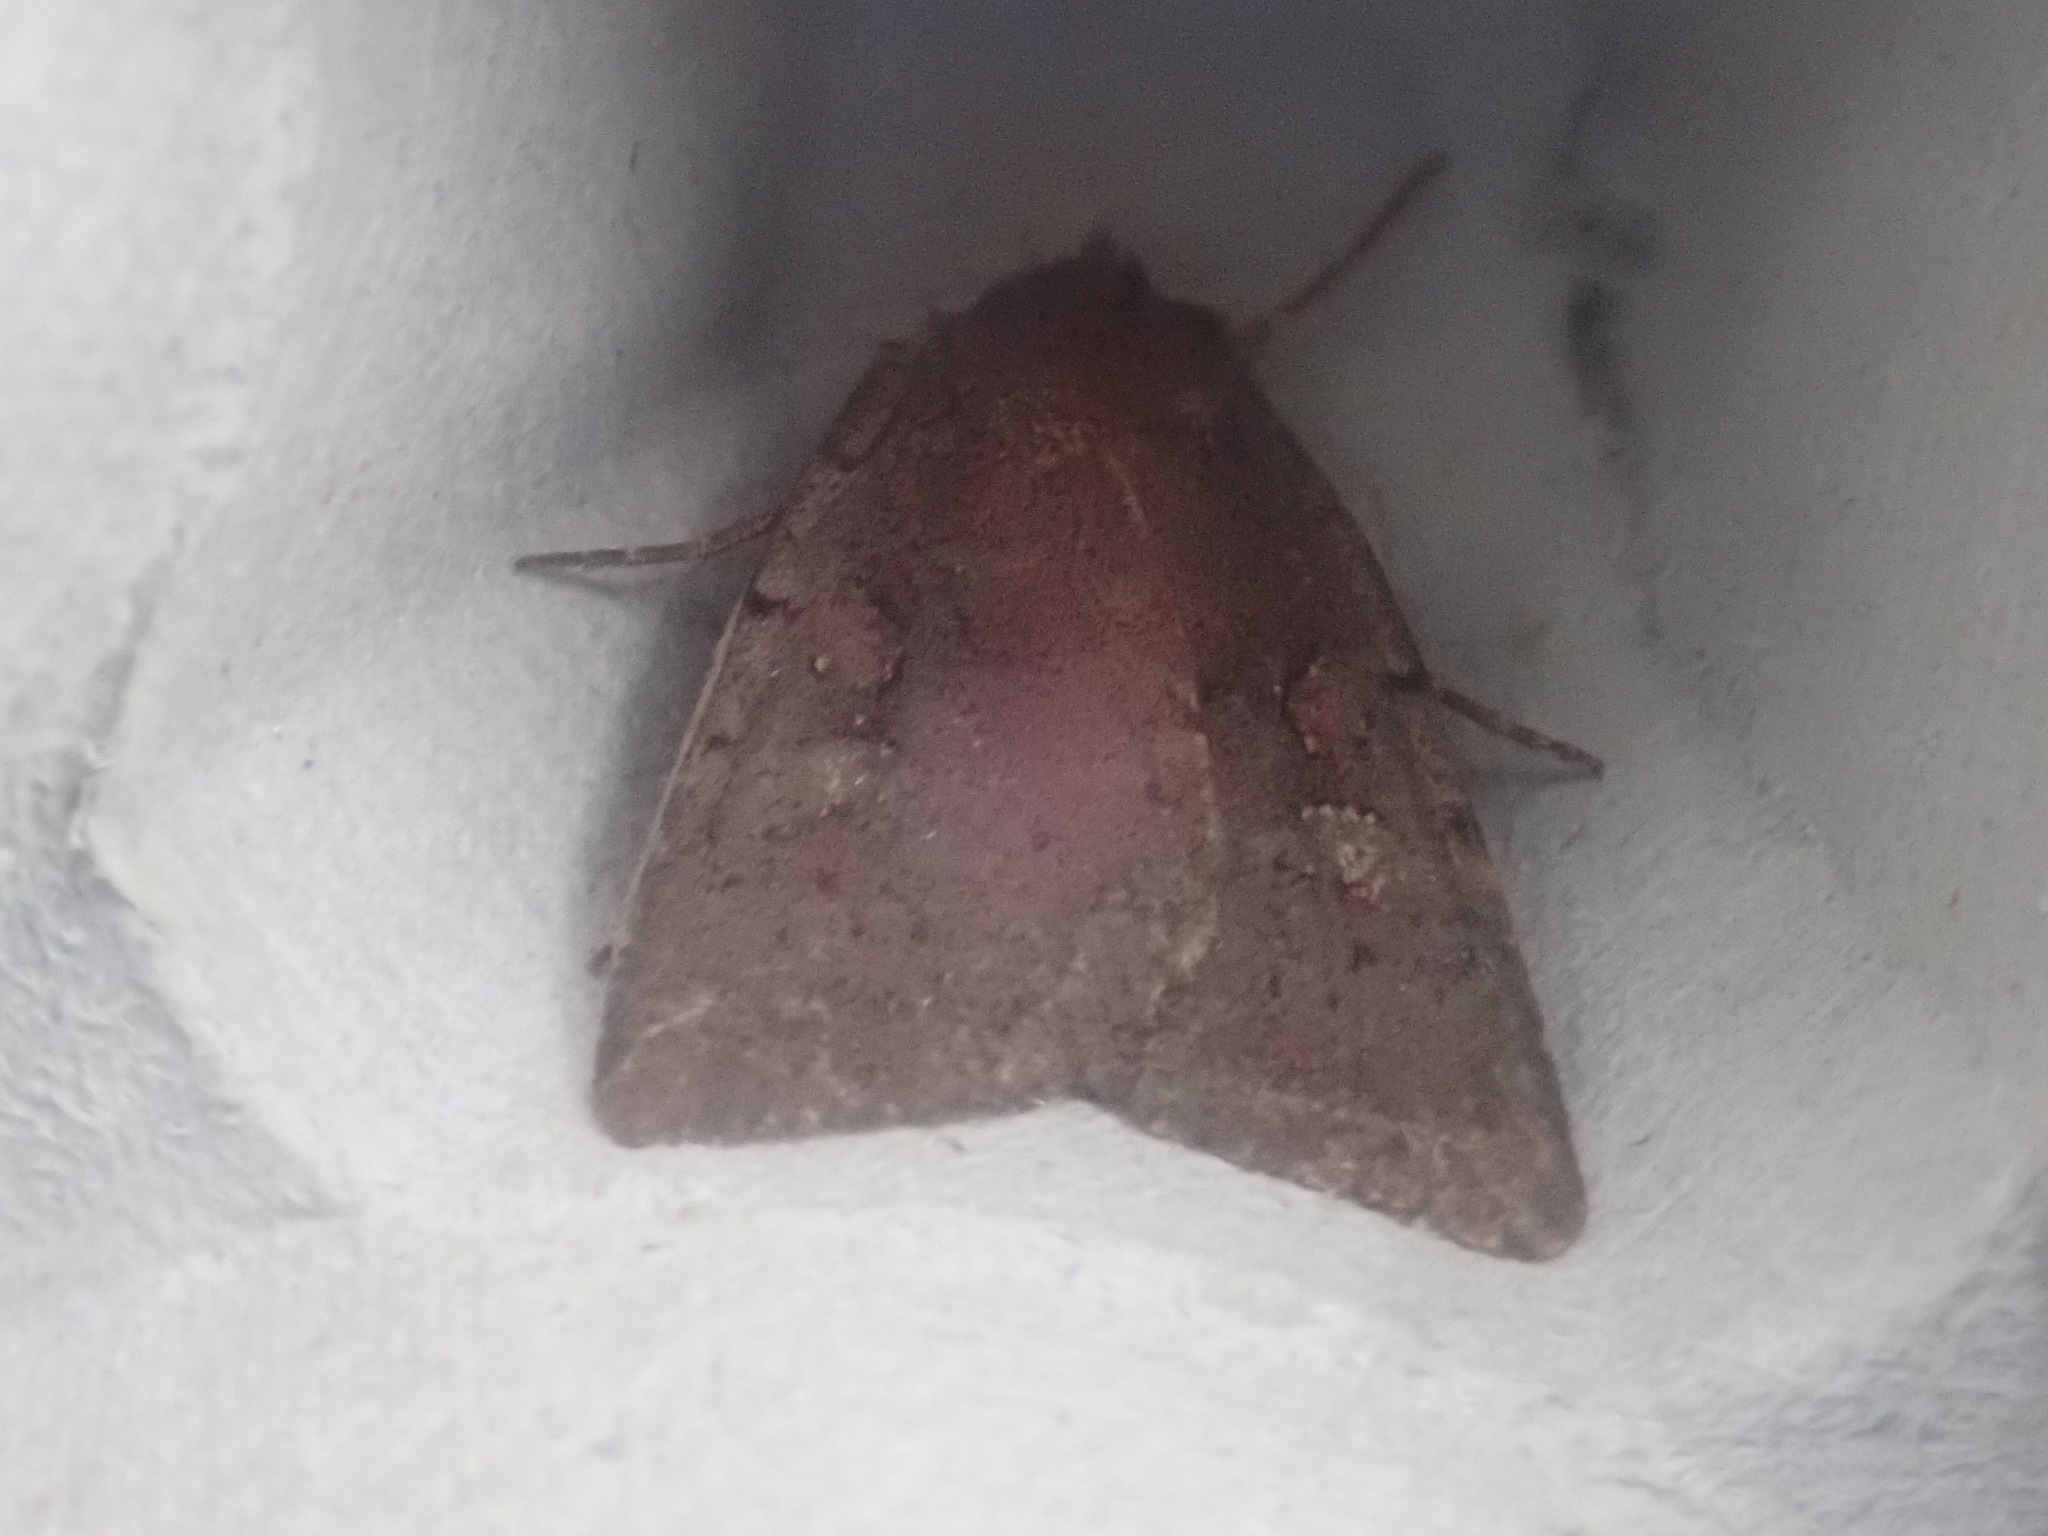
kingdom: Animalia
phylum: Arthropoda
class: Insecta
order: Lepidoptera
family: Noctuidae
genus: Xestia
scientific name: Xestia dilucida
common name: Dull reddish dart
